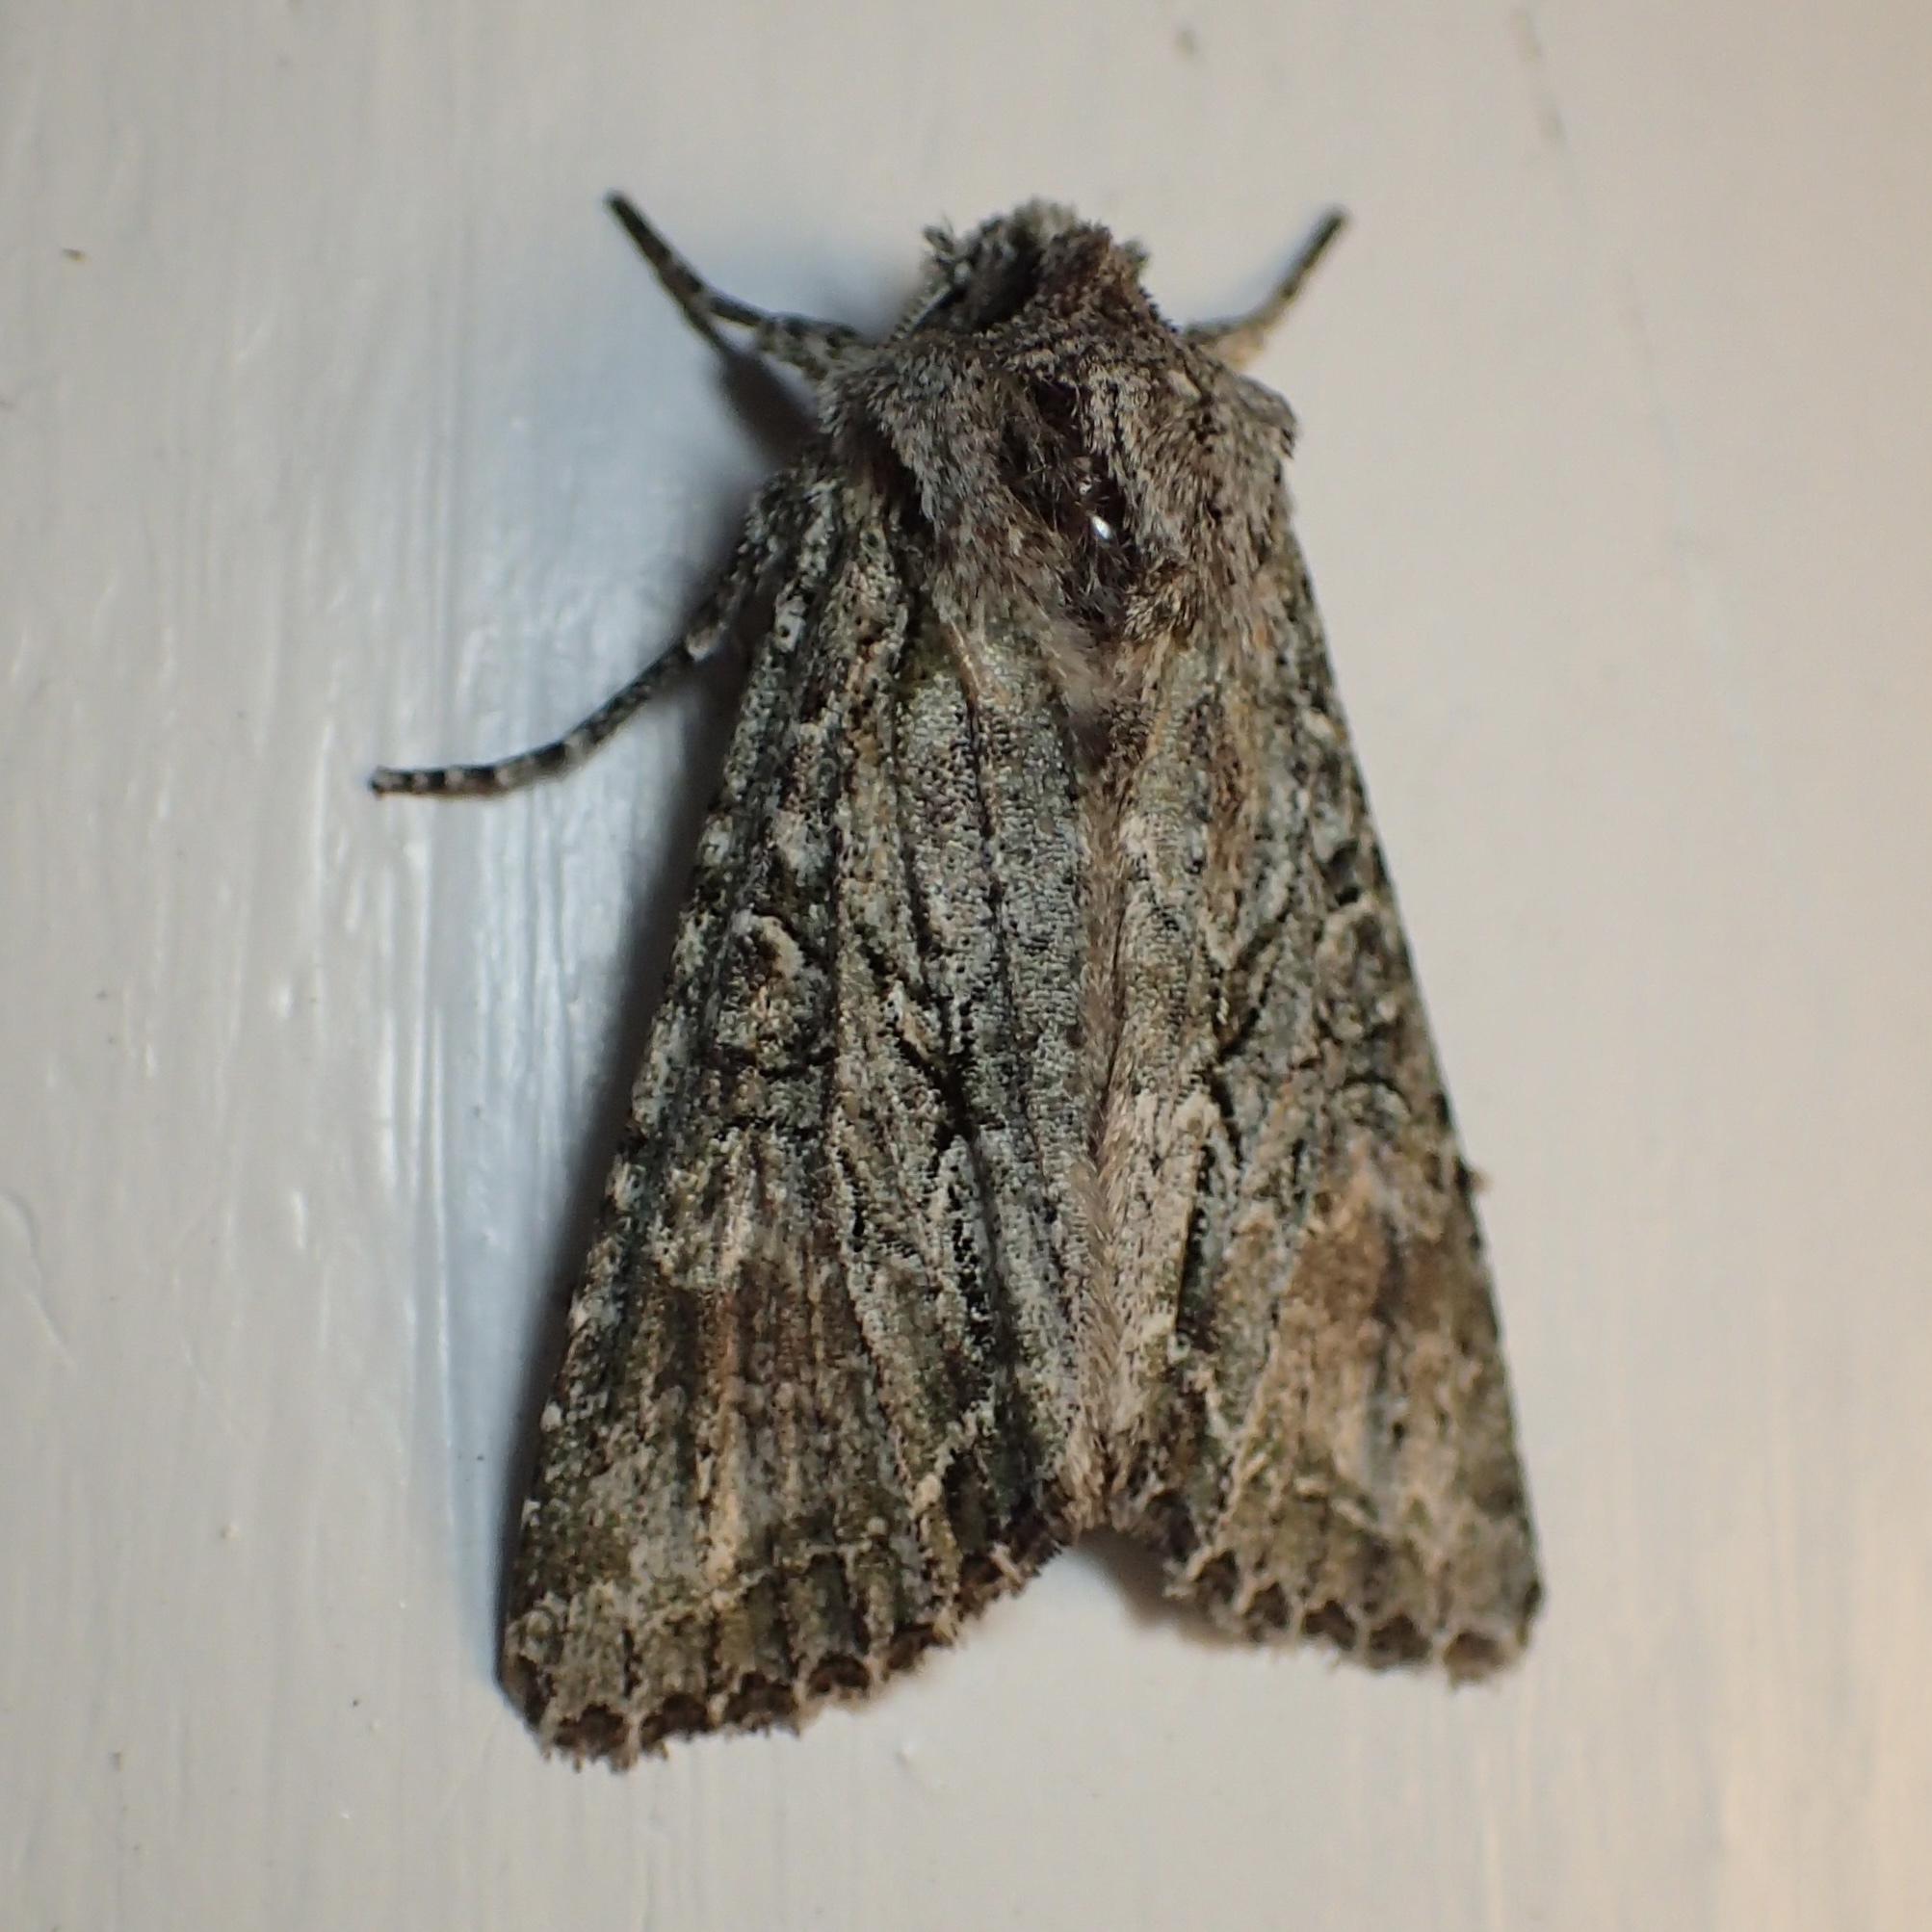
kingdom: Animalia
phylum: Arthropoda
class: Insecta
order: Lepidoptera
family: Noctuidae
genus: Ichneutica
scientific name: Ichneutica mutans
